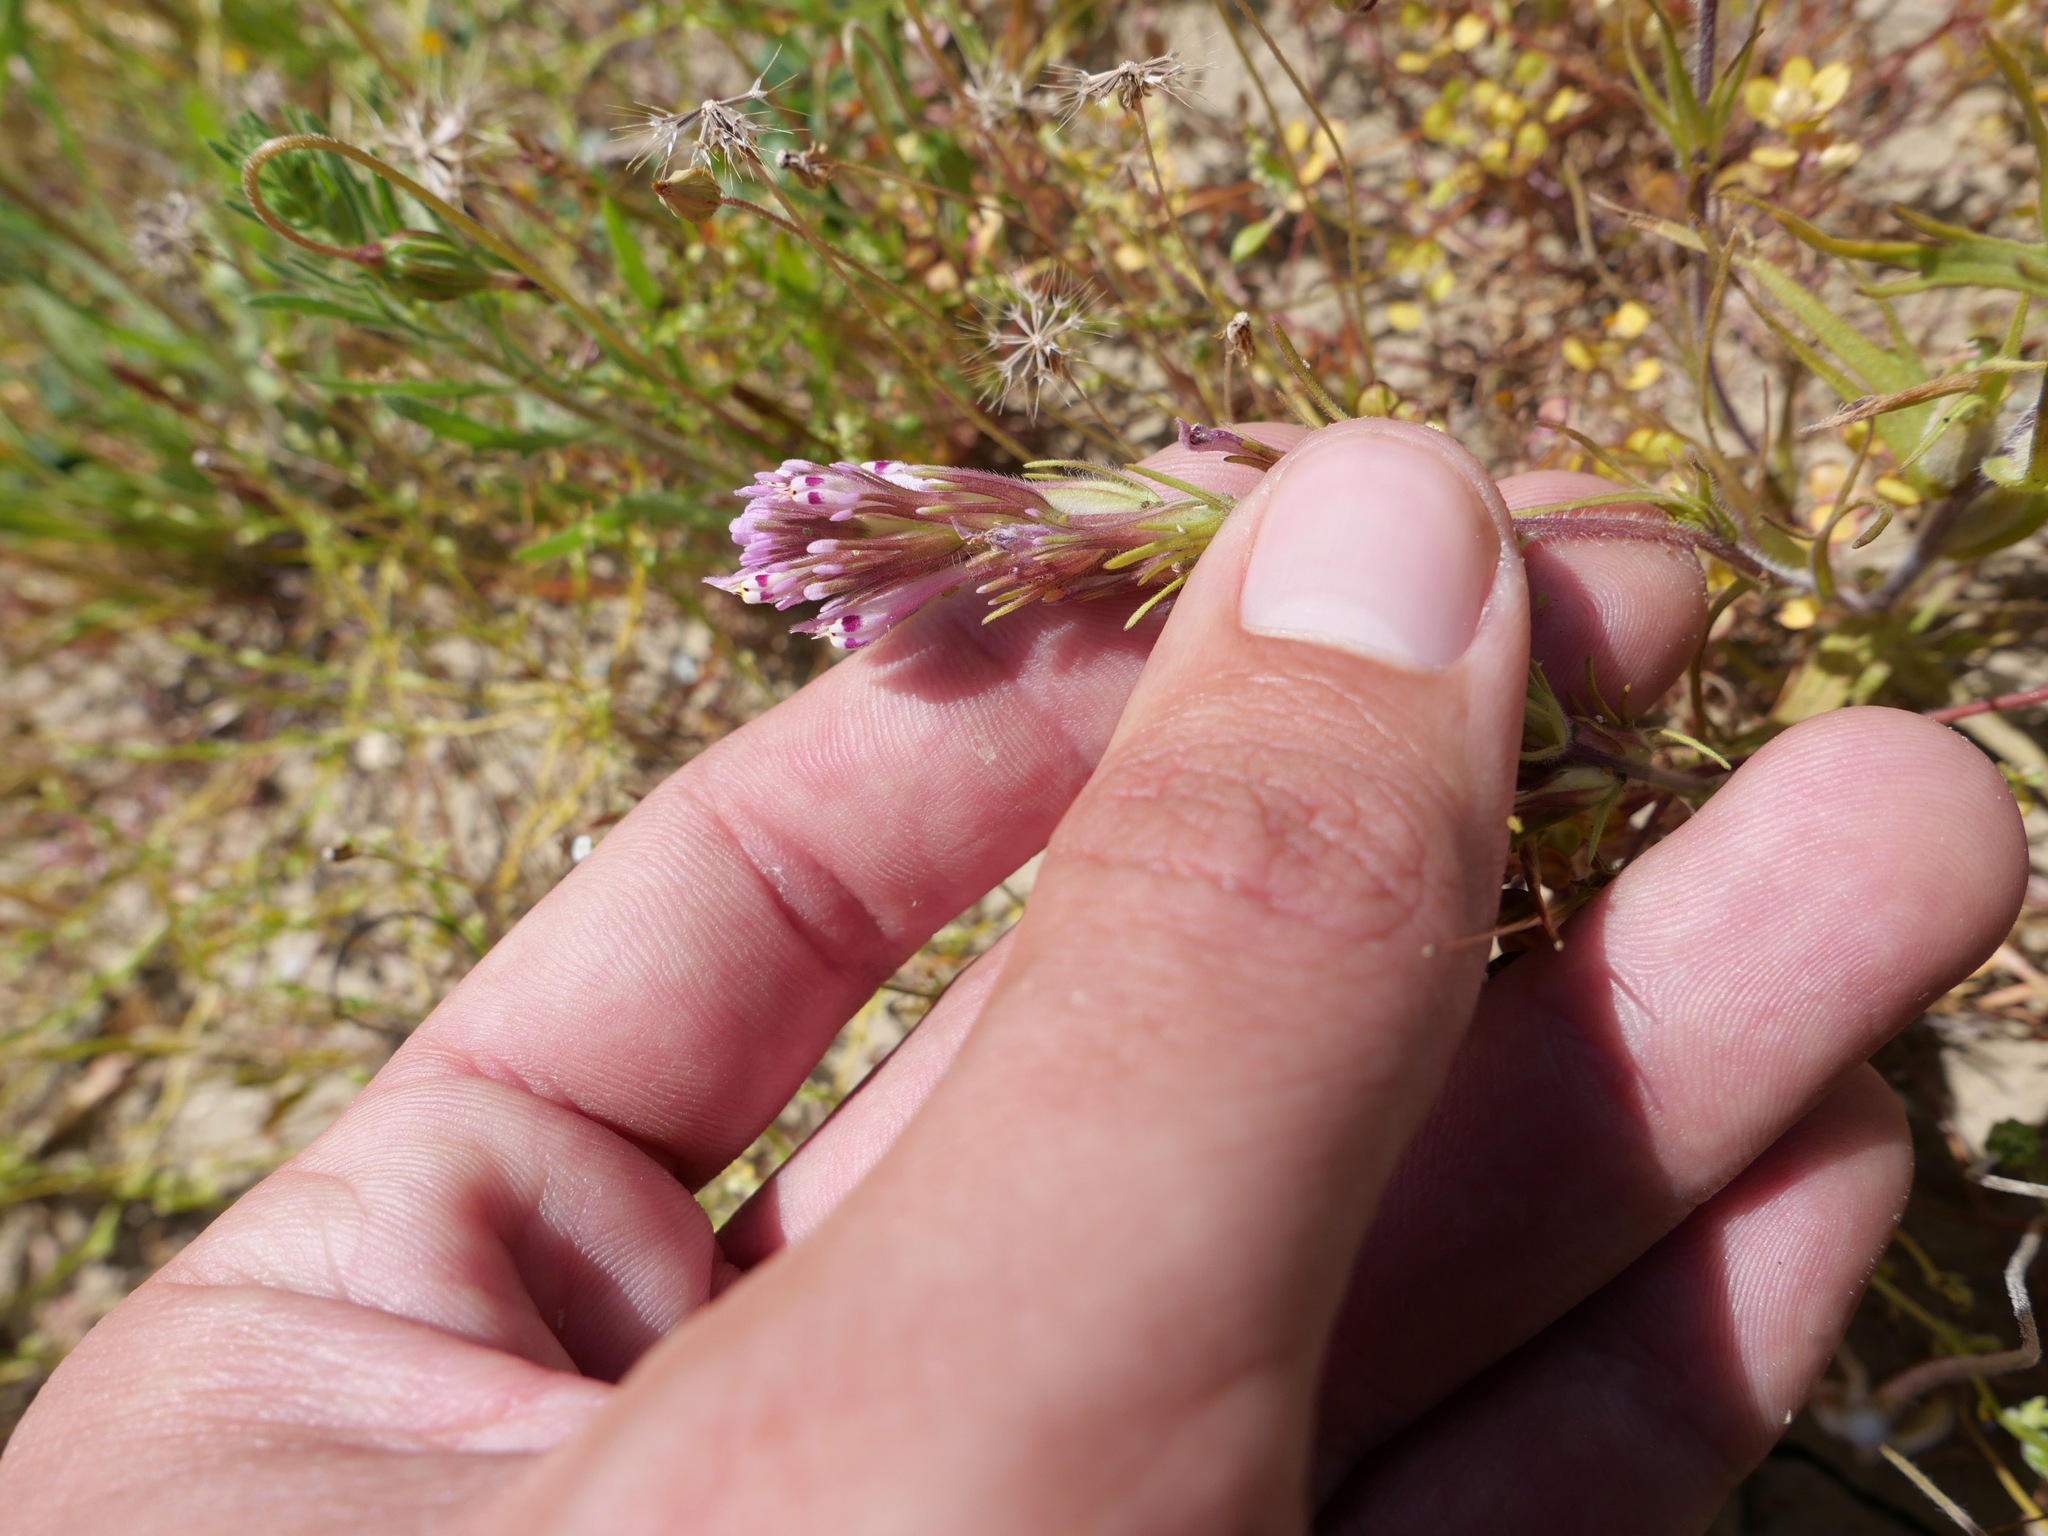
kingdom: Plantae
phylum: Tracheophyta
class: Magnoliopsida
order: Lamiales
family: Orobanchaceae
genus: Castilleja
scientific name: Castilleja brevistyla
